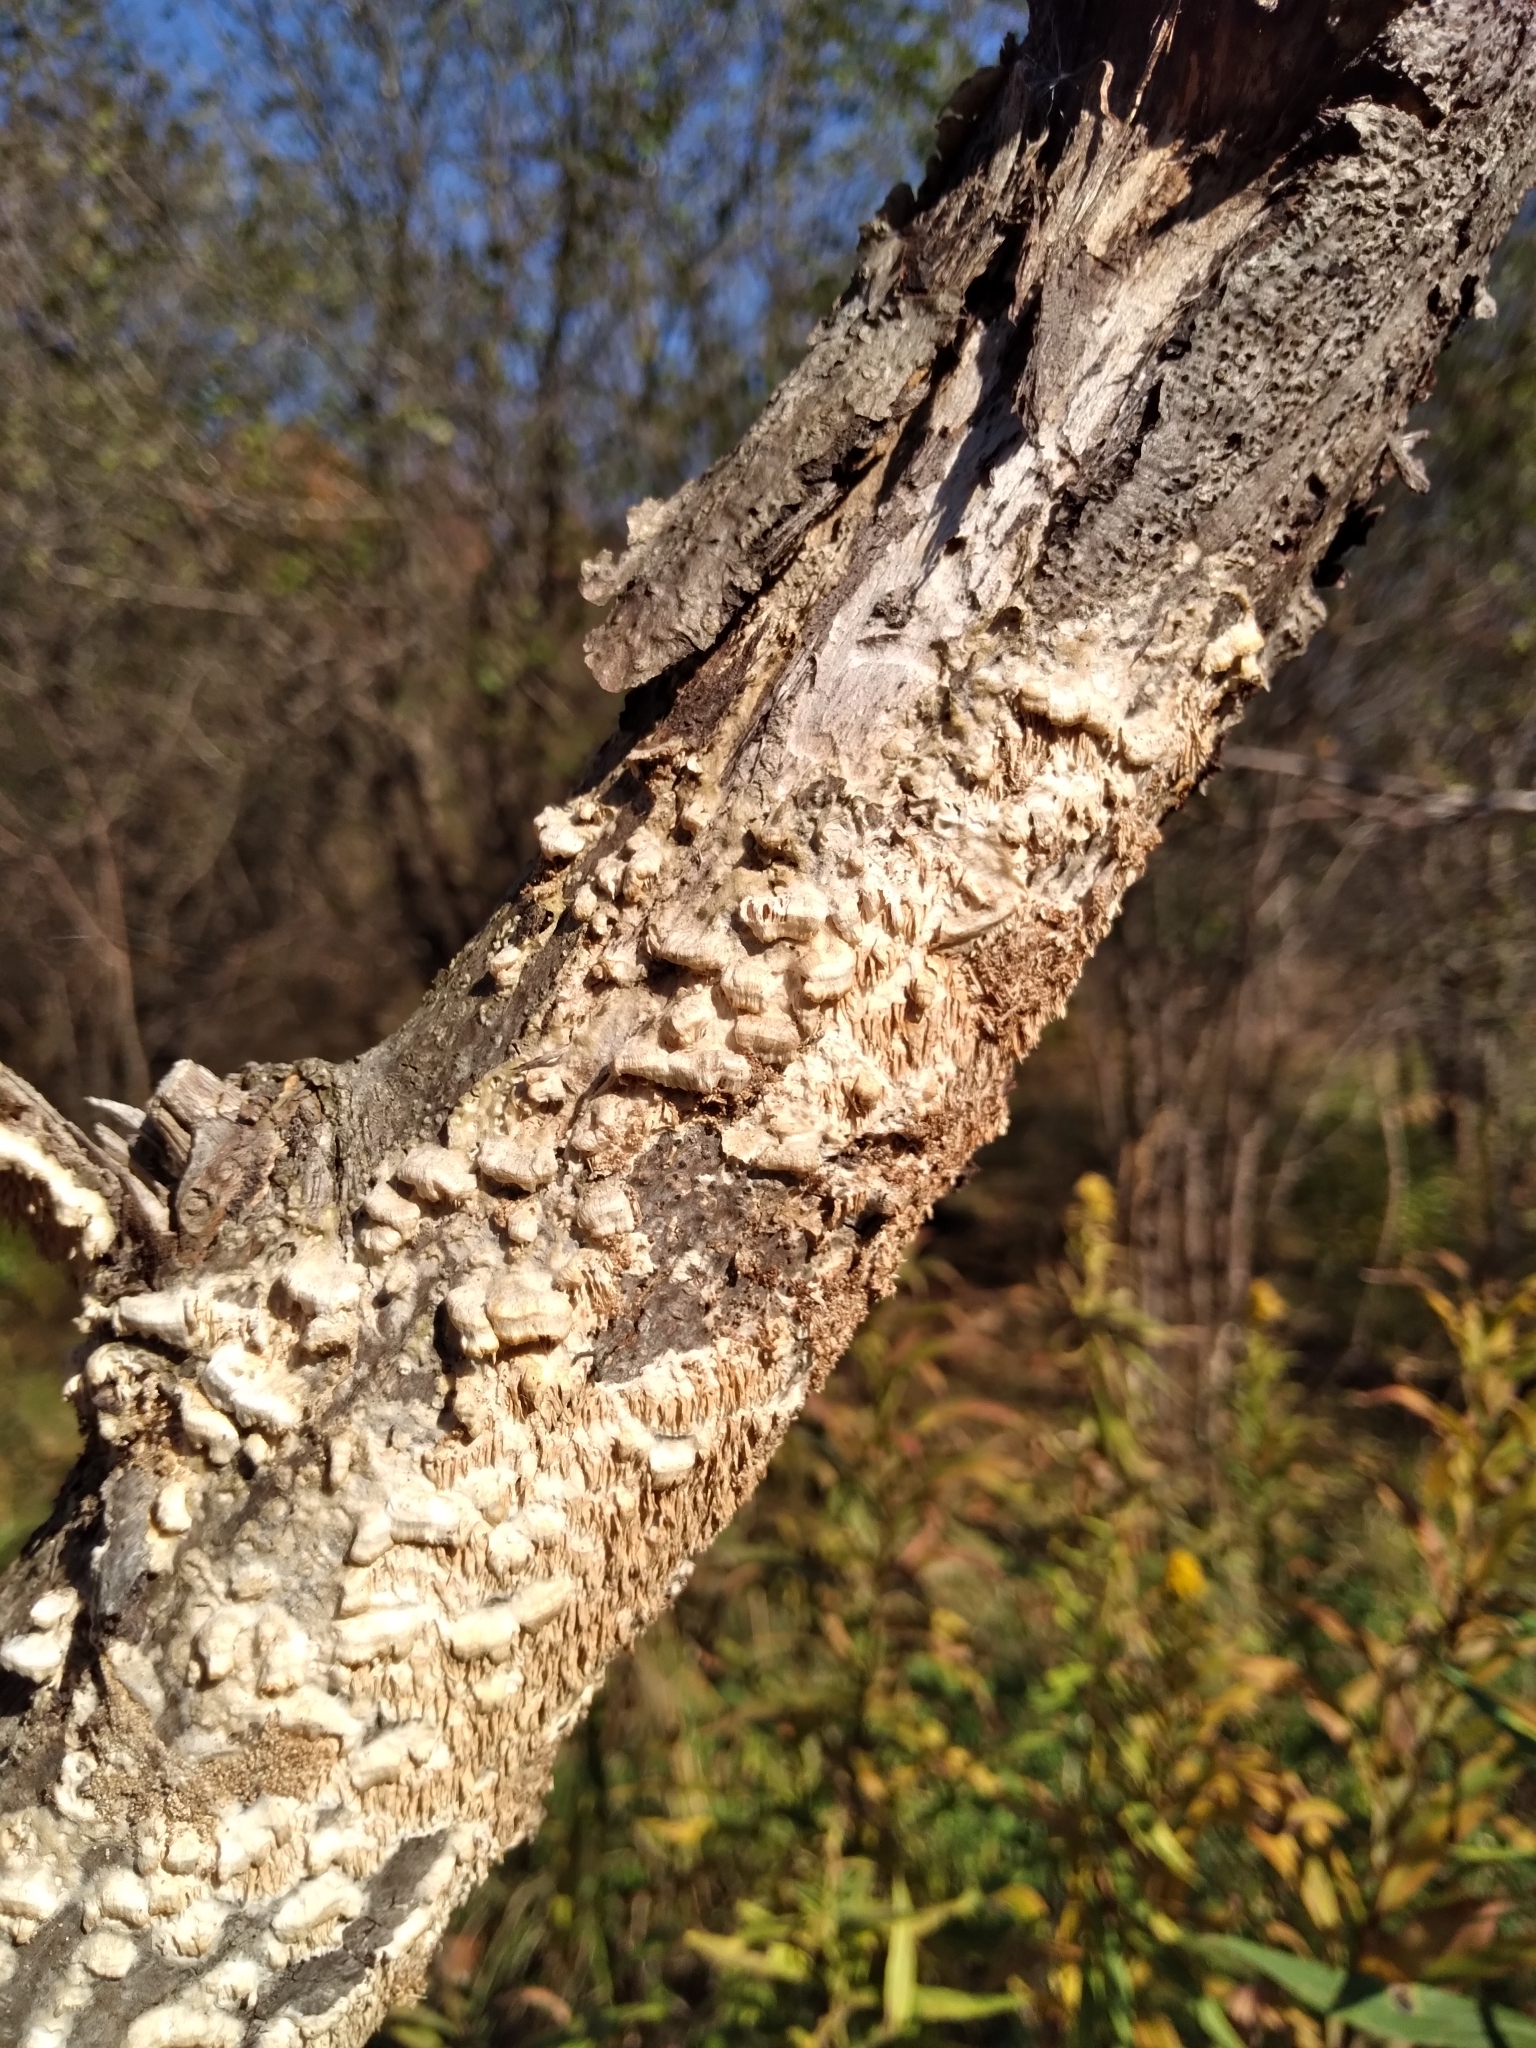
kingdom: Fungi
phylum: Basidiomycota
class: Agaricomycetes
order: Polyporales
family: Irpicaceae
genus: Irpex
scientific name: Irpex lacteus
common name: Milk-white toothed polypore
